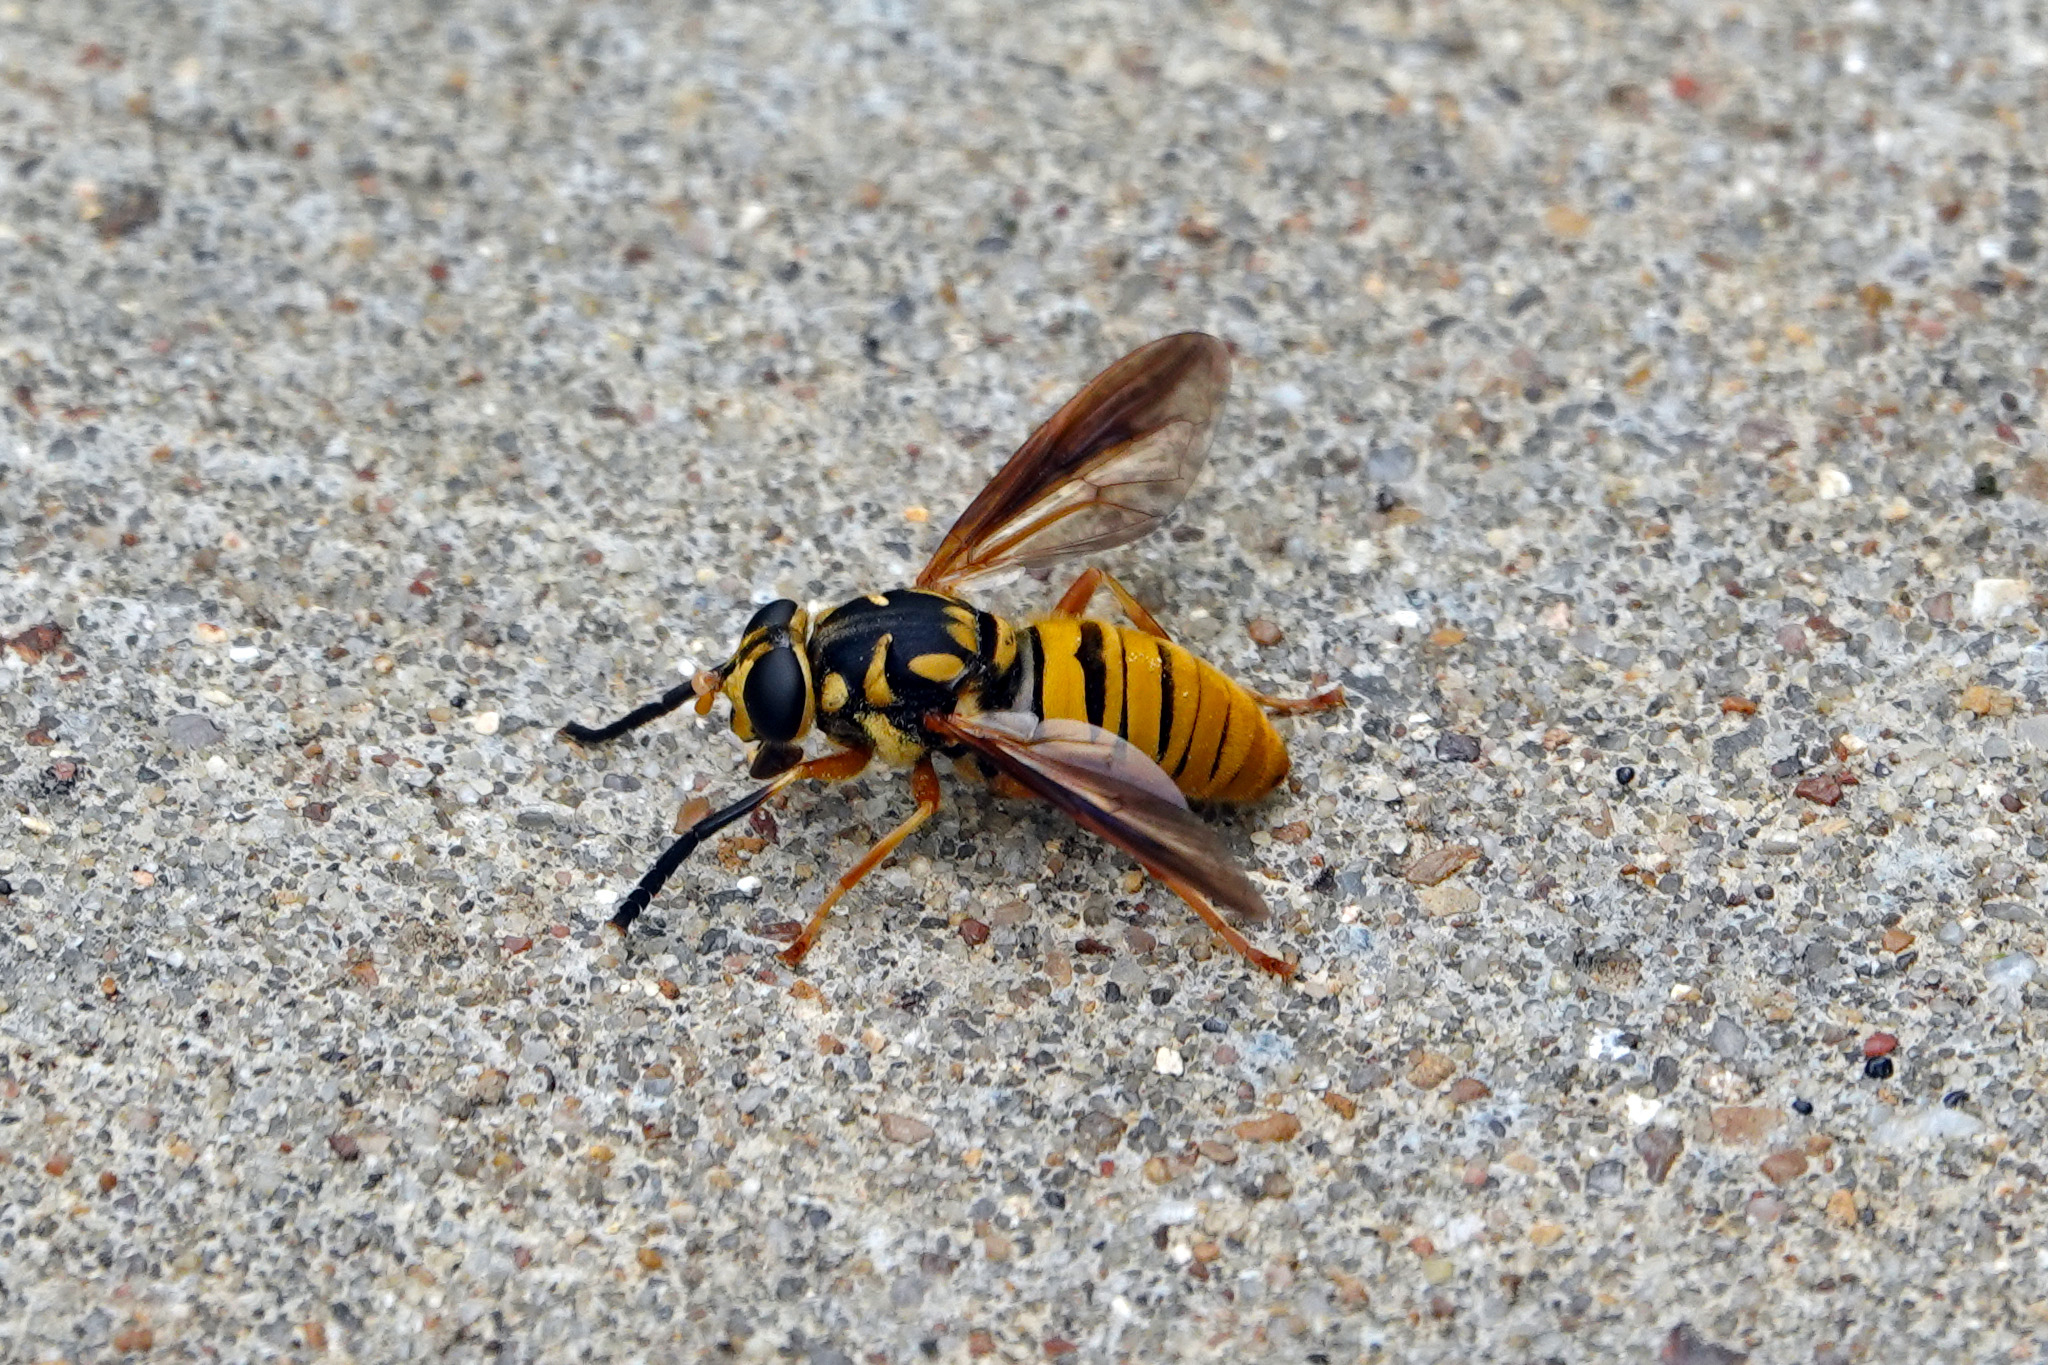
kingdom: Animalia
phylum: Arthropoda
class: Insecta
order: Diptera
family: Syrphidae
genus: Temnostoma
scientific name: Temnostoma daochum
